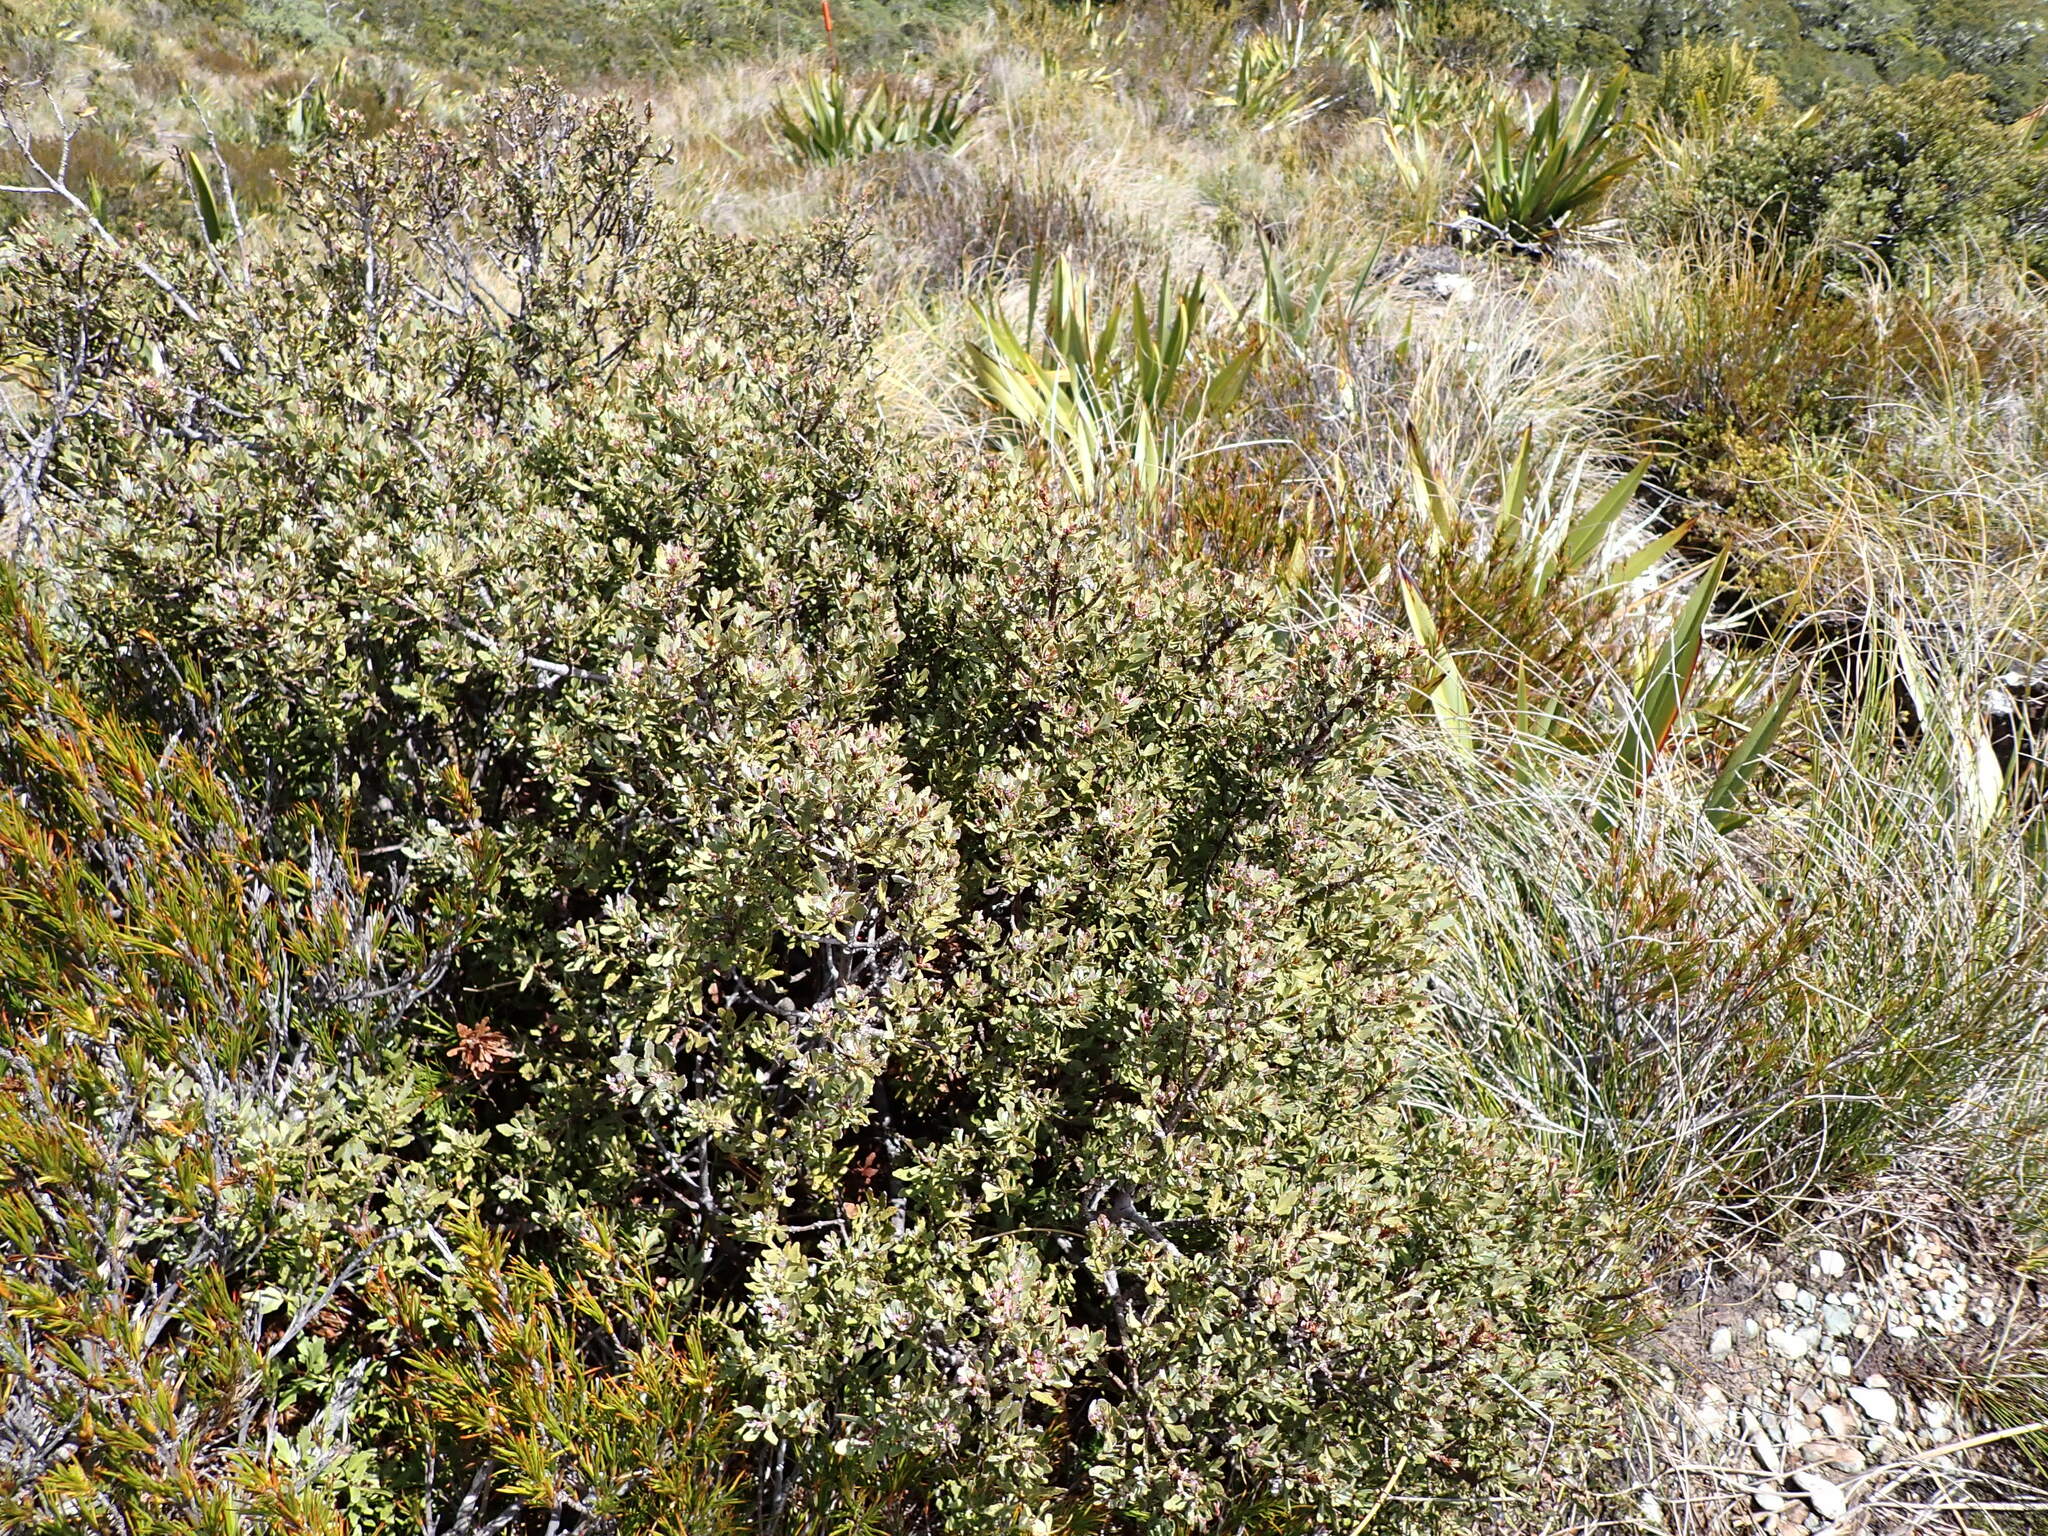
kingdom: Plantae
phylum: Tracheophyta
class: Pinopsida
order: Pinales
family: Phyllocladaceae
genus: Phyllocladus
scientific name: Phyllocladus trichomanoides
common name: Celery pine
